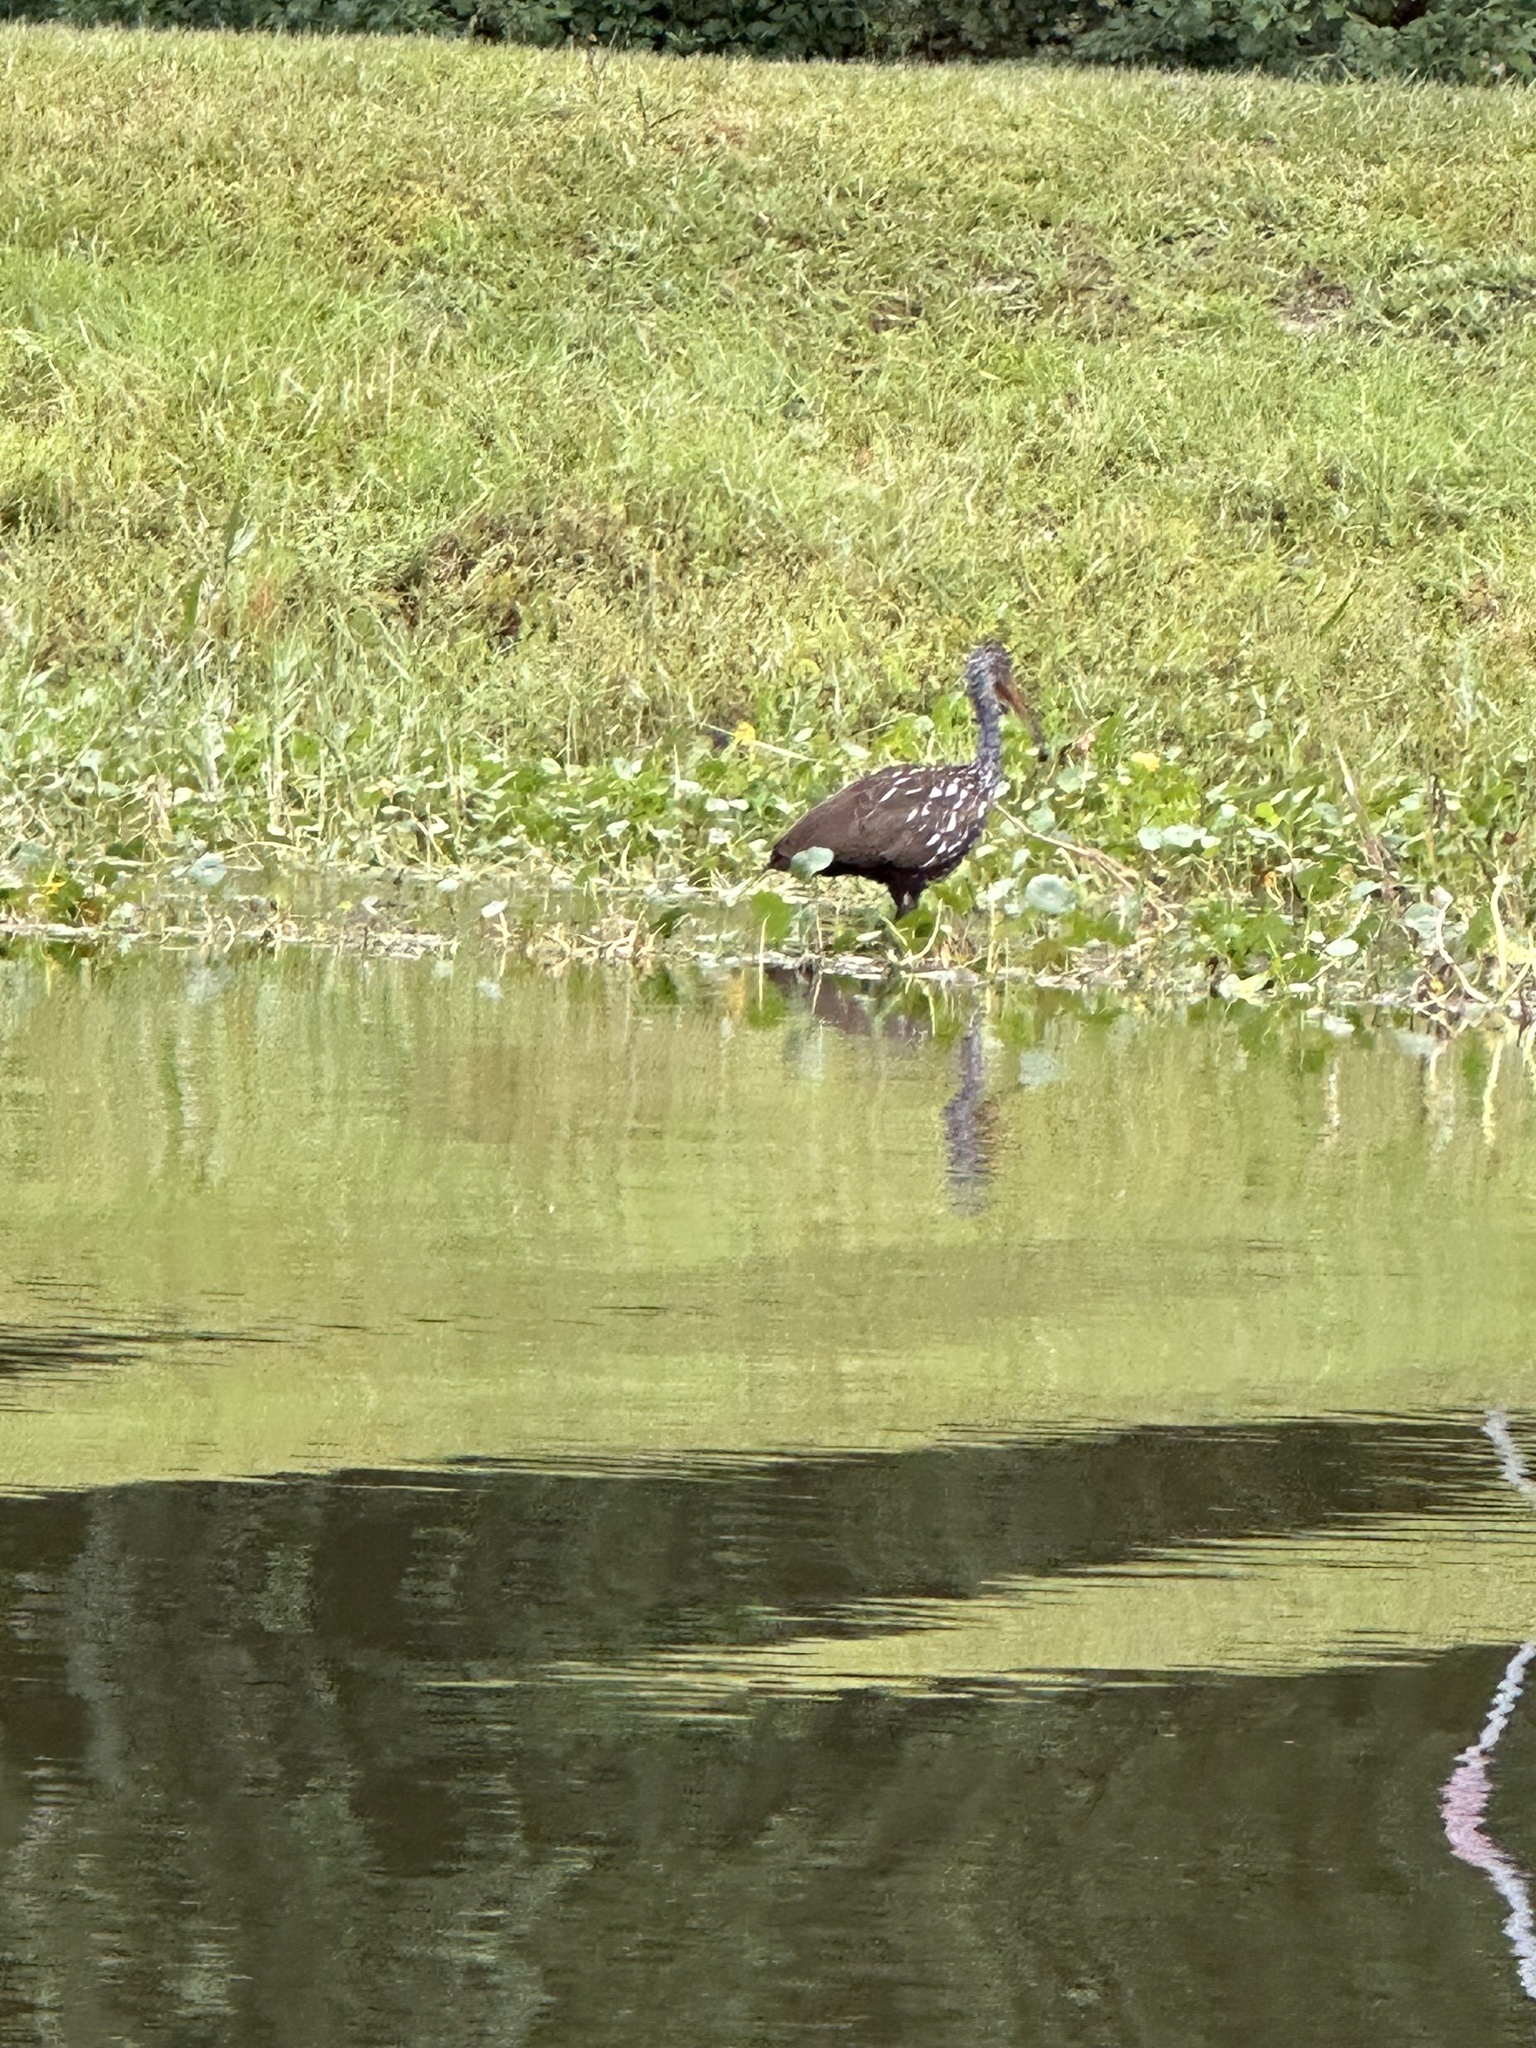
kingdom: Animalia
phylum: Chordata
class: Aves
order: Gruiformes
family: Aramidae
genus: Aramus
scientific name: Aramus guarauna
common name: Limpkin
